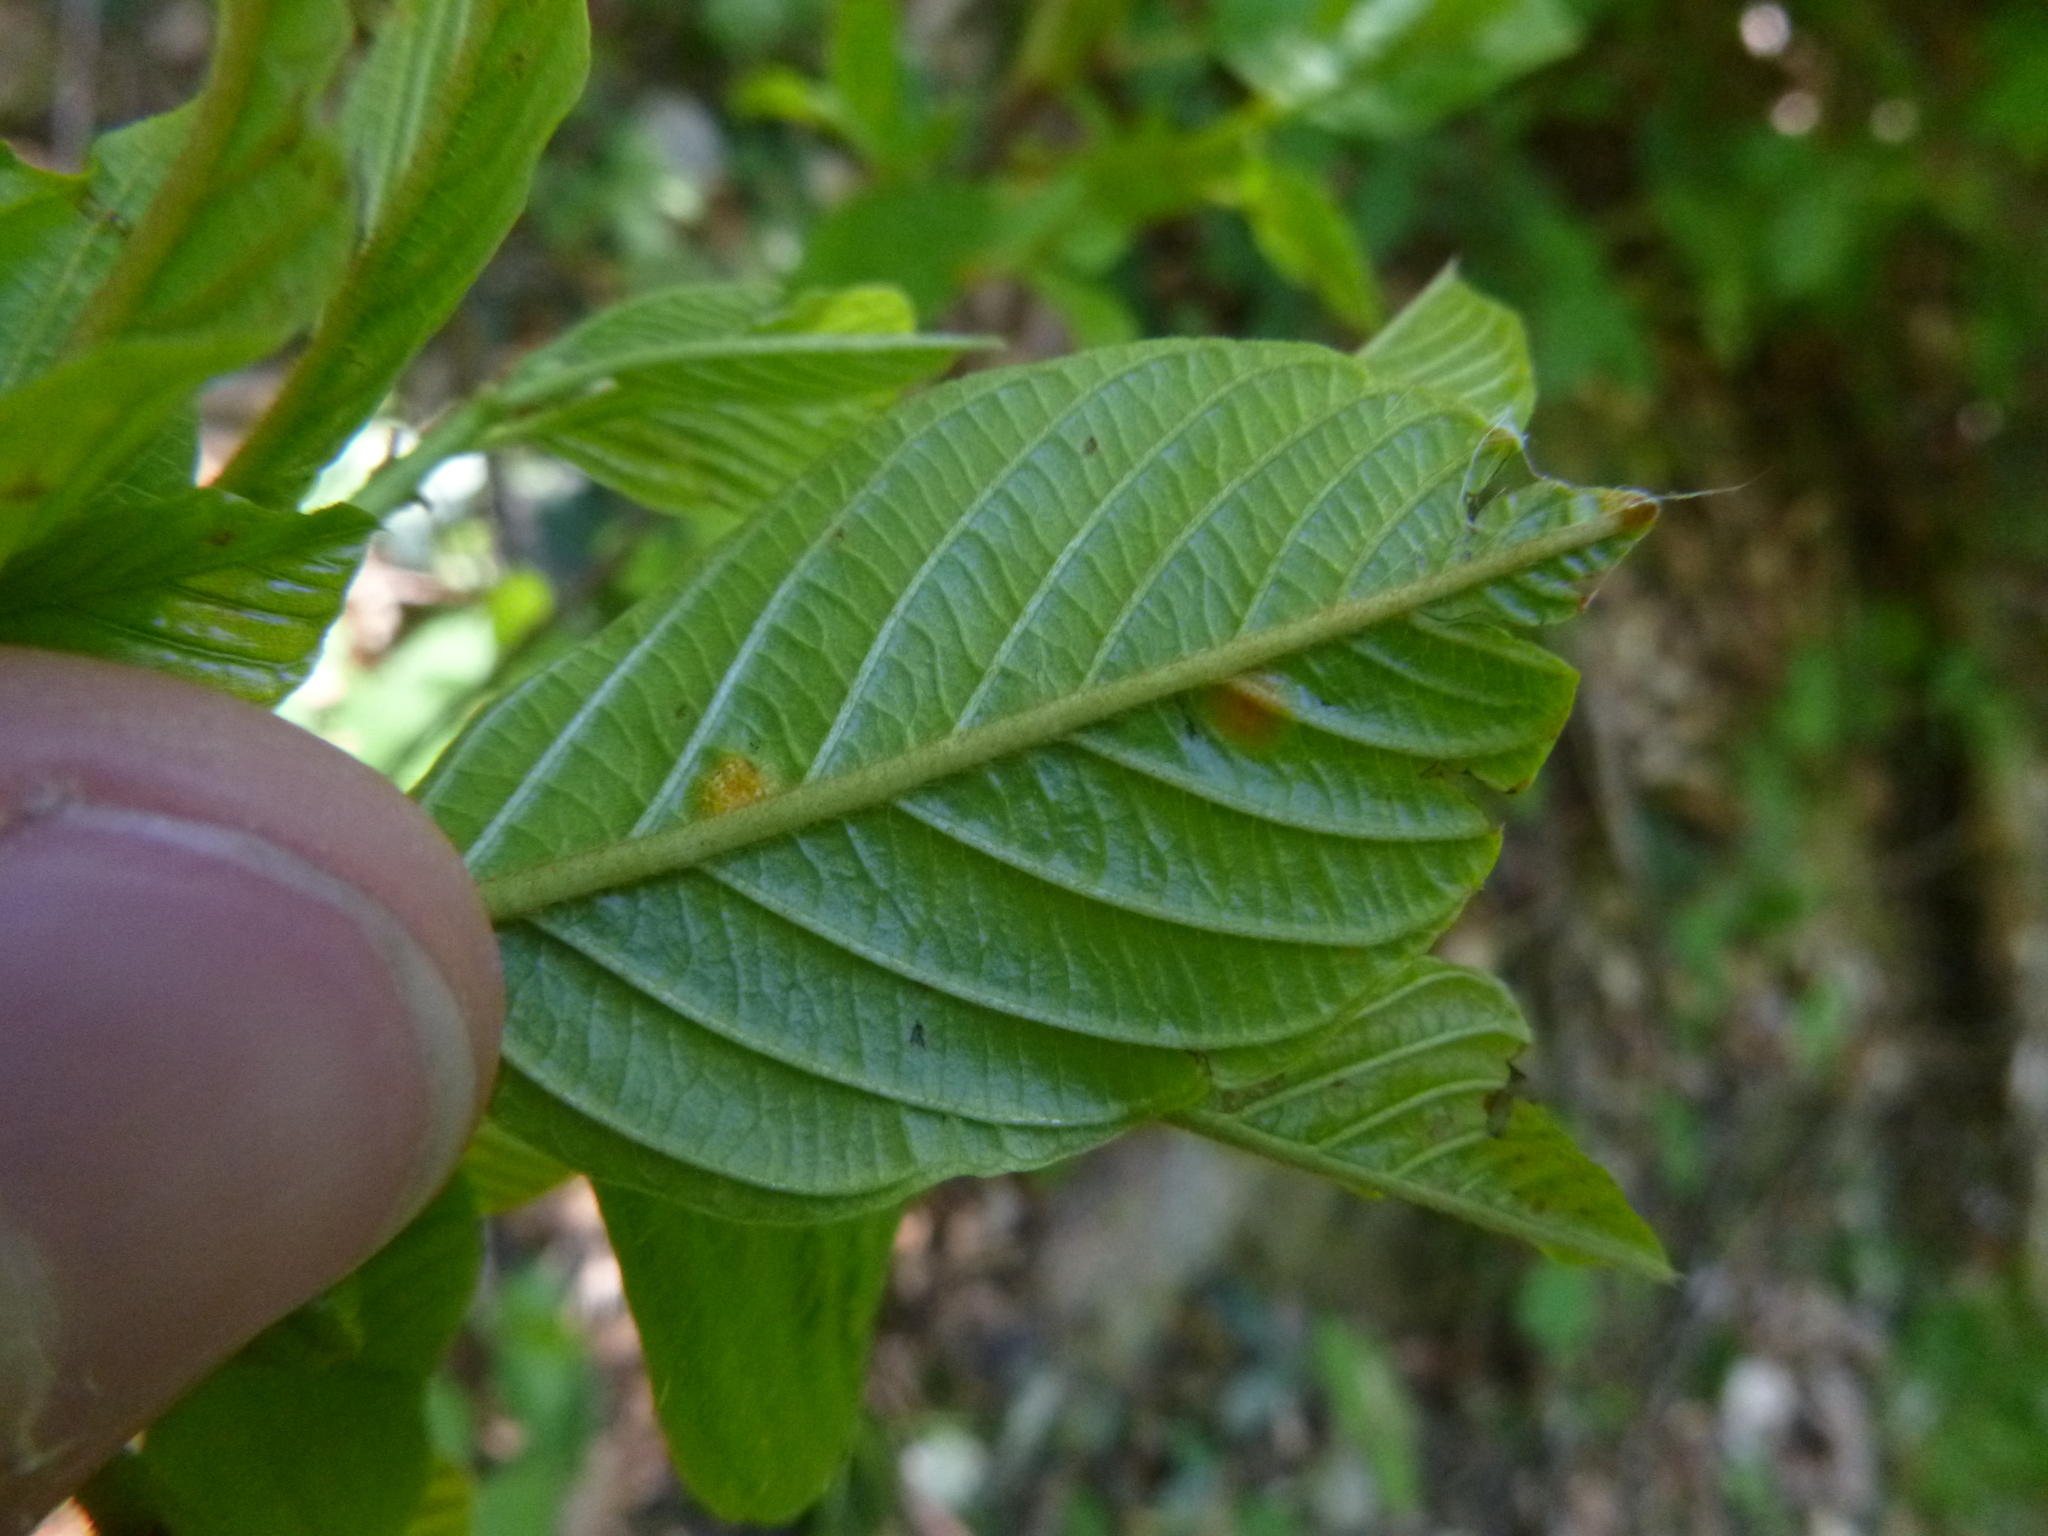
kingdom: Plantae
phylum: Tracheophyta
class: Magnoliopsida
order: Rosales
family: Rhamnaceae
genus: Frangula
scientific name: Frangula alnus
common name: Alder buckthorn
